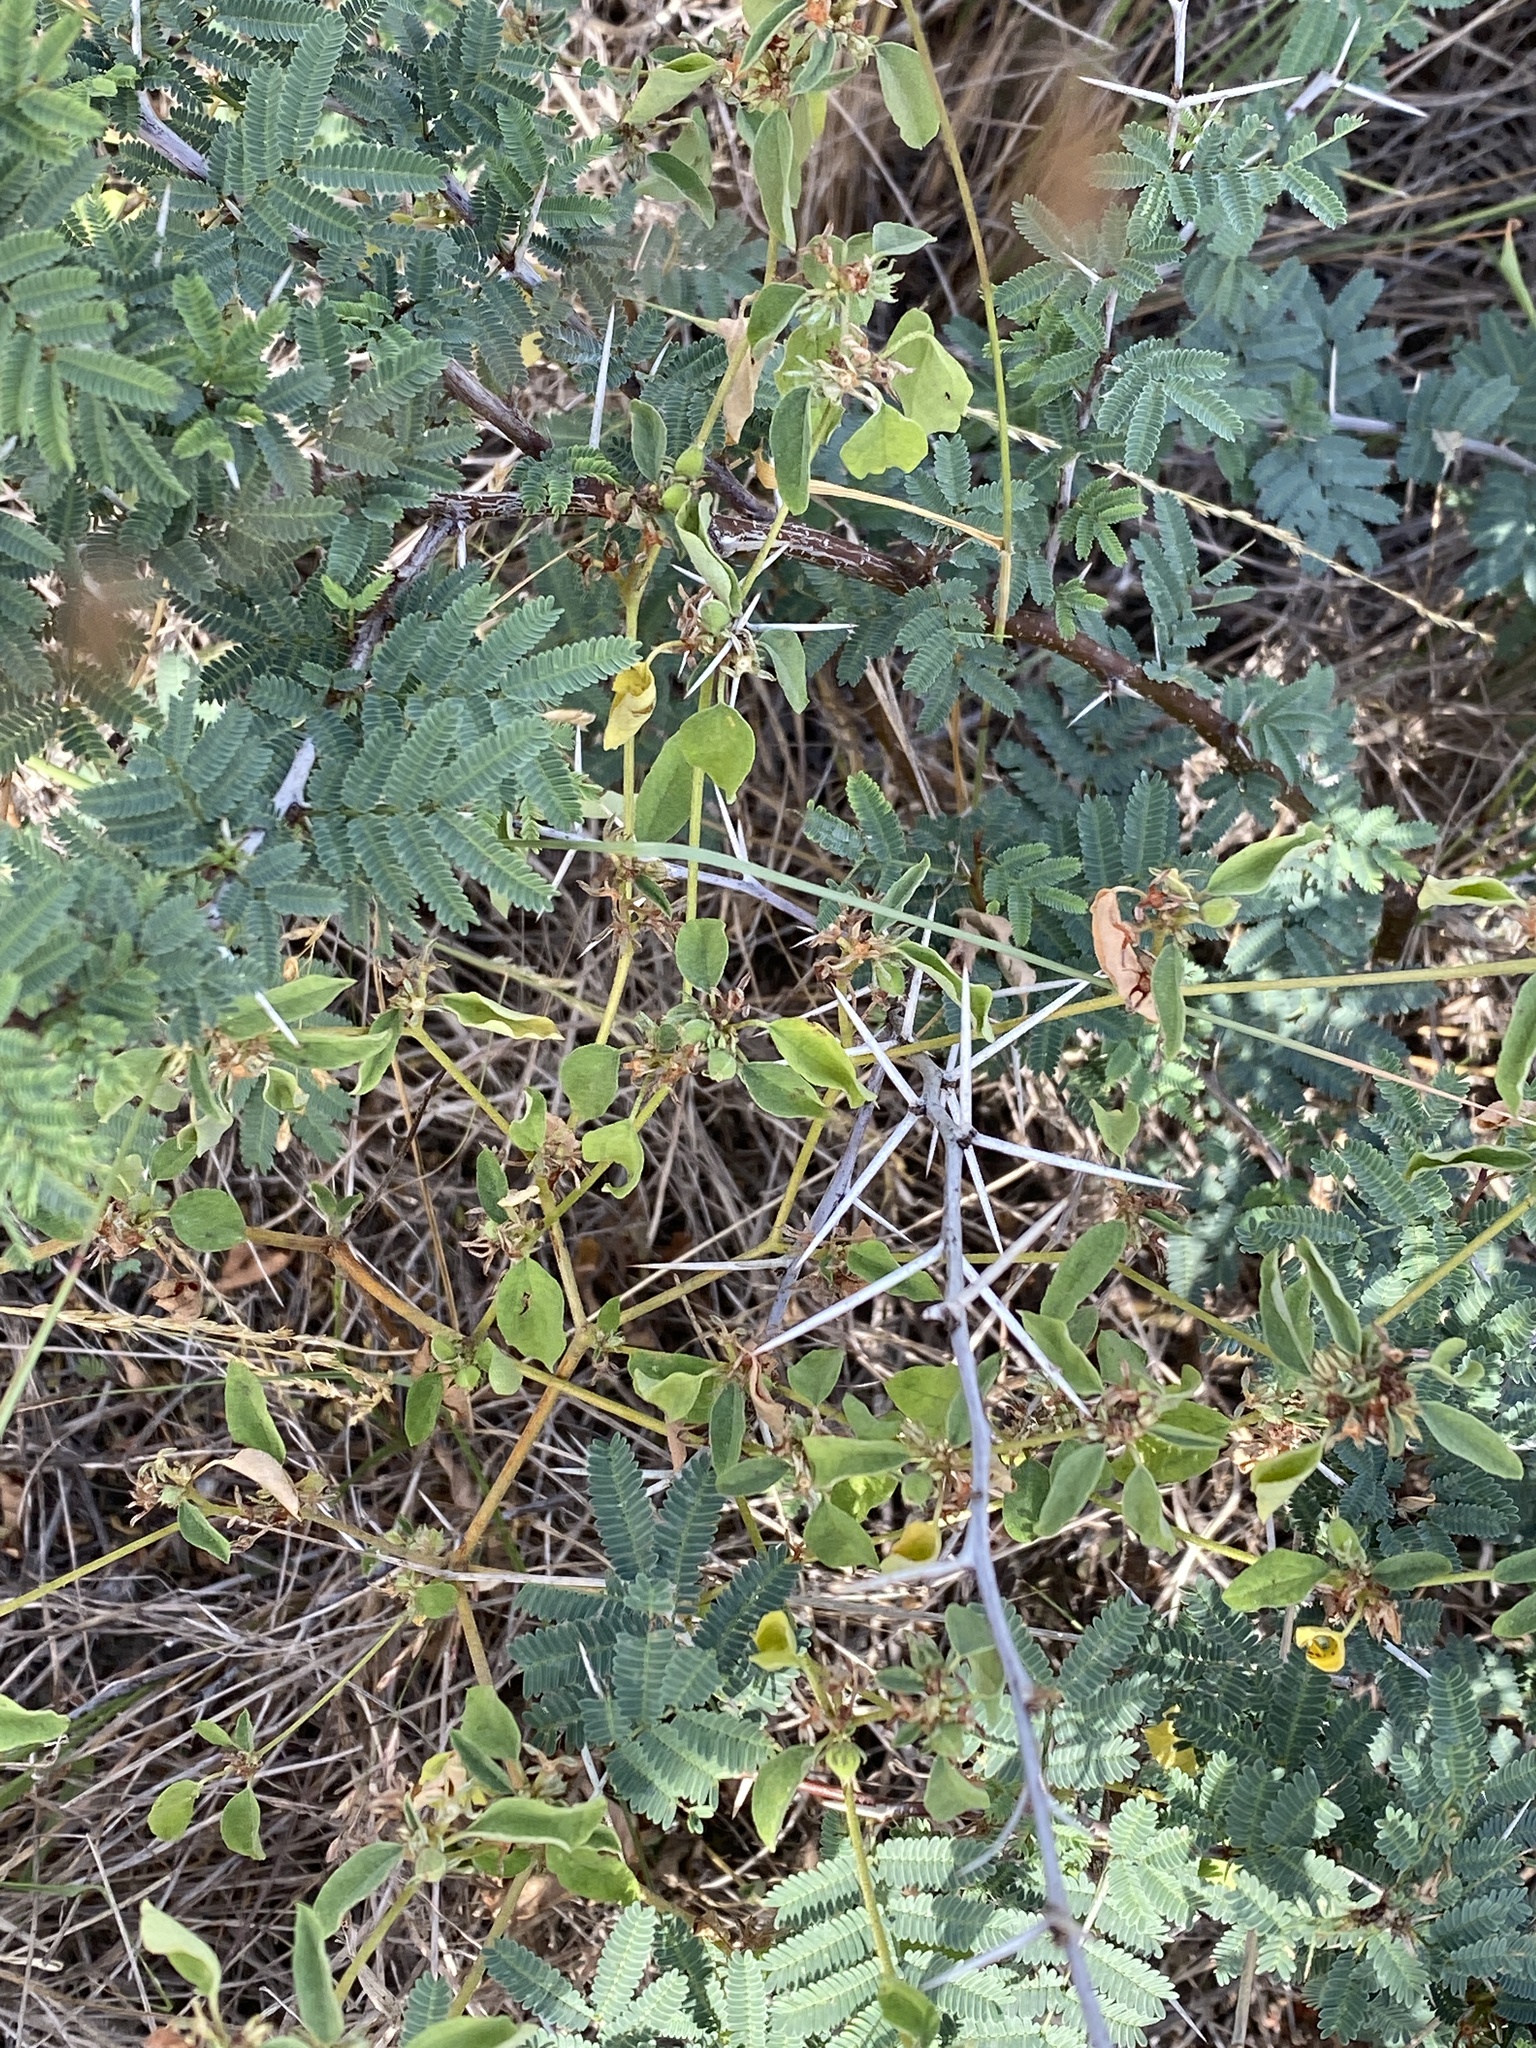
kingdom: Plantae
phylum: Tracheophyta
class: Magnoliopsida
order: Fabales
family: Fabaceae
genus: Vachellia
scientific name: Vachellia farnesiana
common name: Sweet acacia
